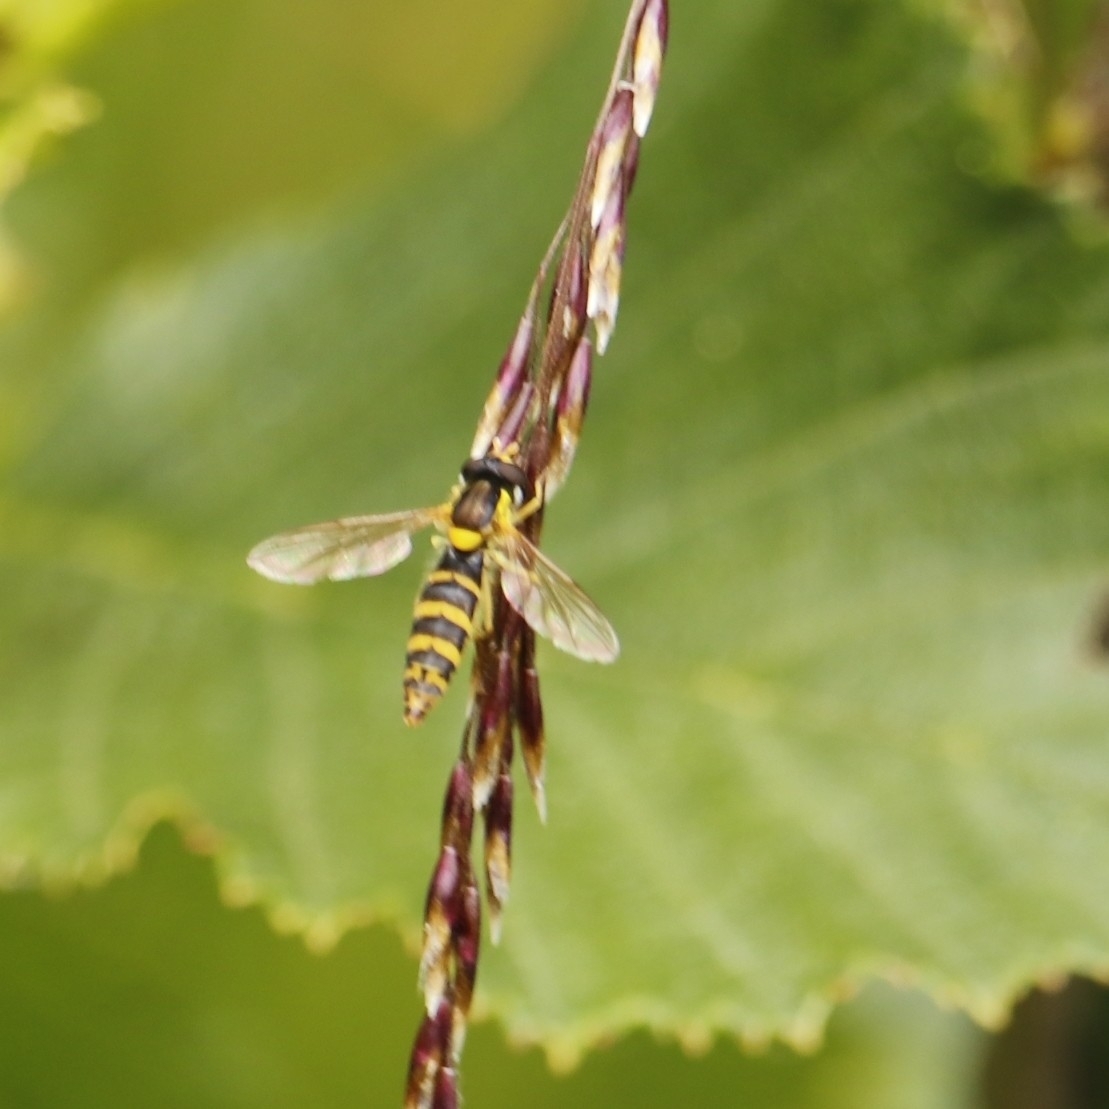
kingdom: Animalia
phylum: Arthropoda
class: Insecta
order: Diptera
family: Syrphidae
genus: Sphaerophoria
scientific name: Sphaerophoria
